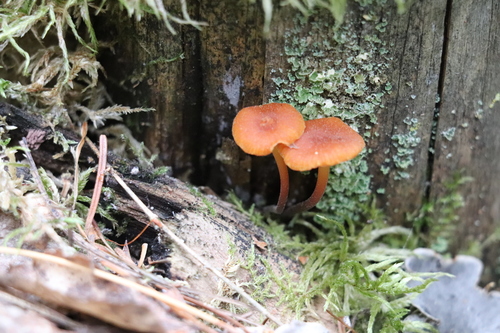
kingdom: Fungi
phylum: Basidiomycota
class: Agaricomycetes
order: Agaricales
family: Mycenaceae
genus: Xeromphalina
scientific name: Xeromphalina campanella
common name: Pinewood gingertail
